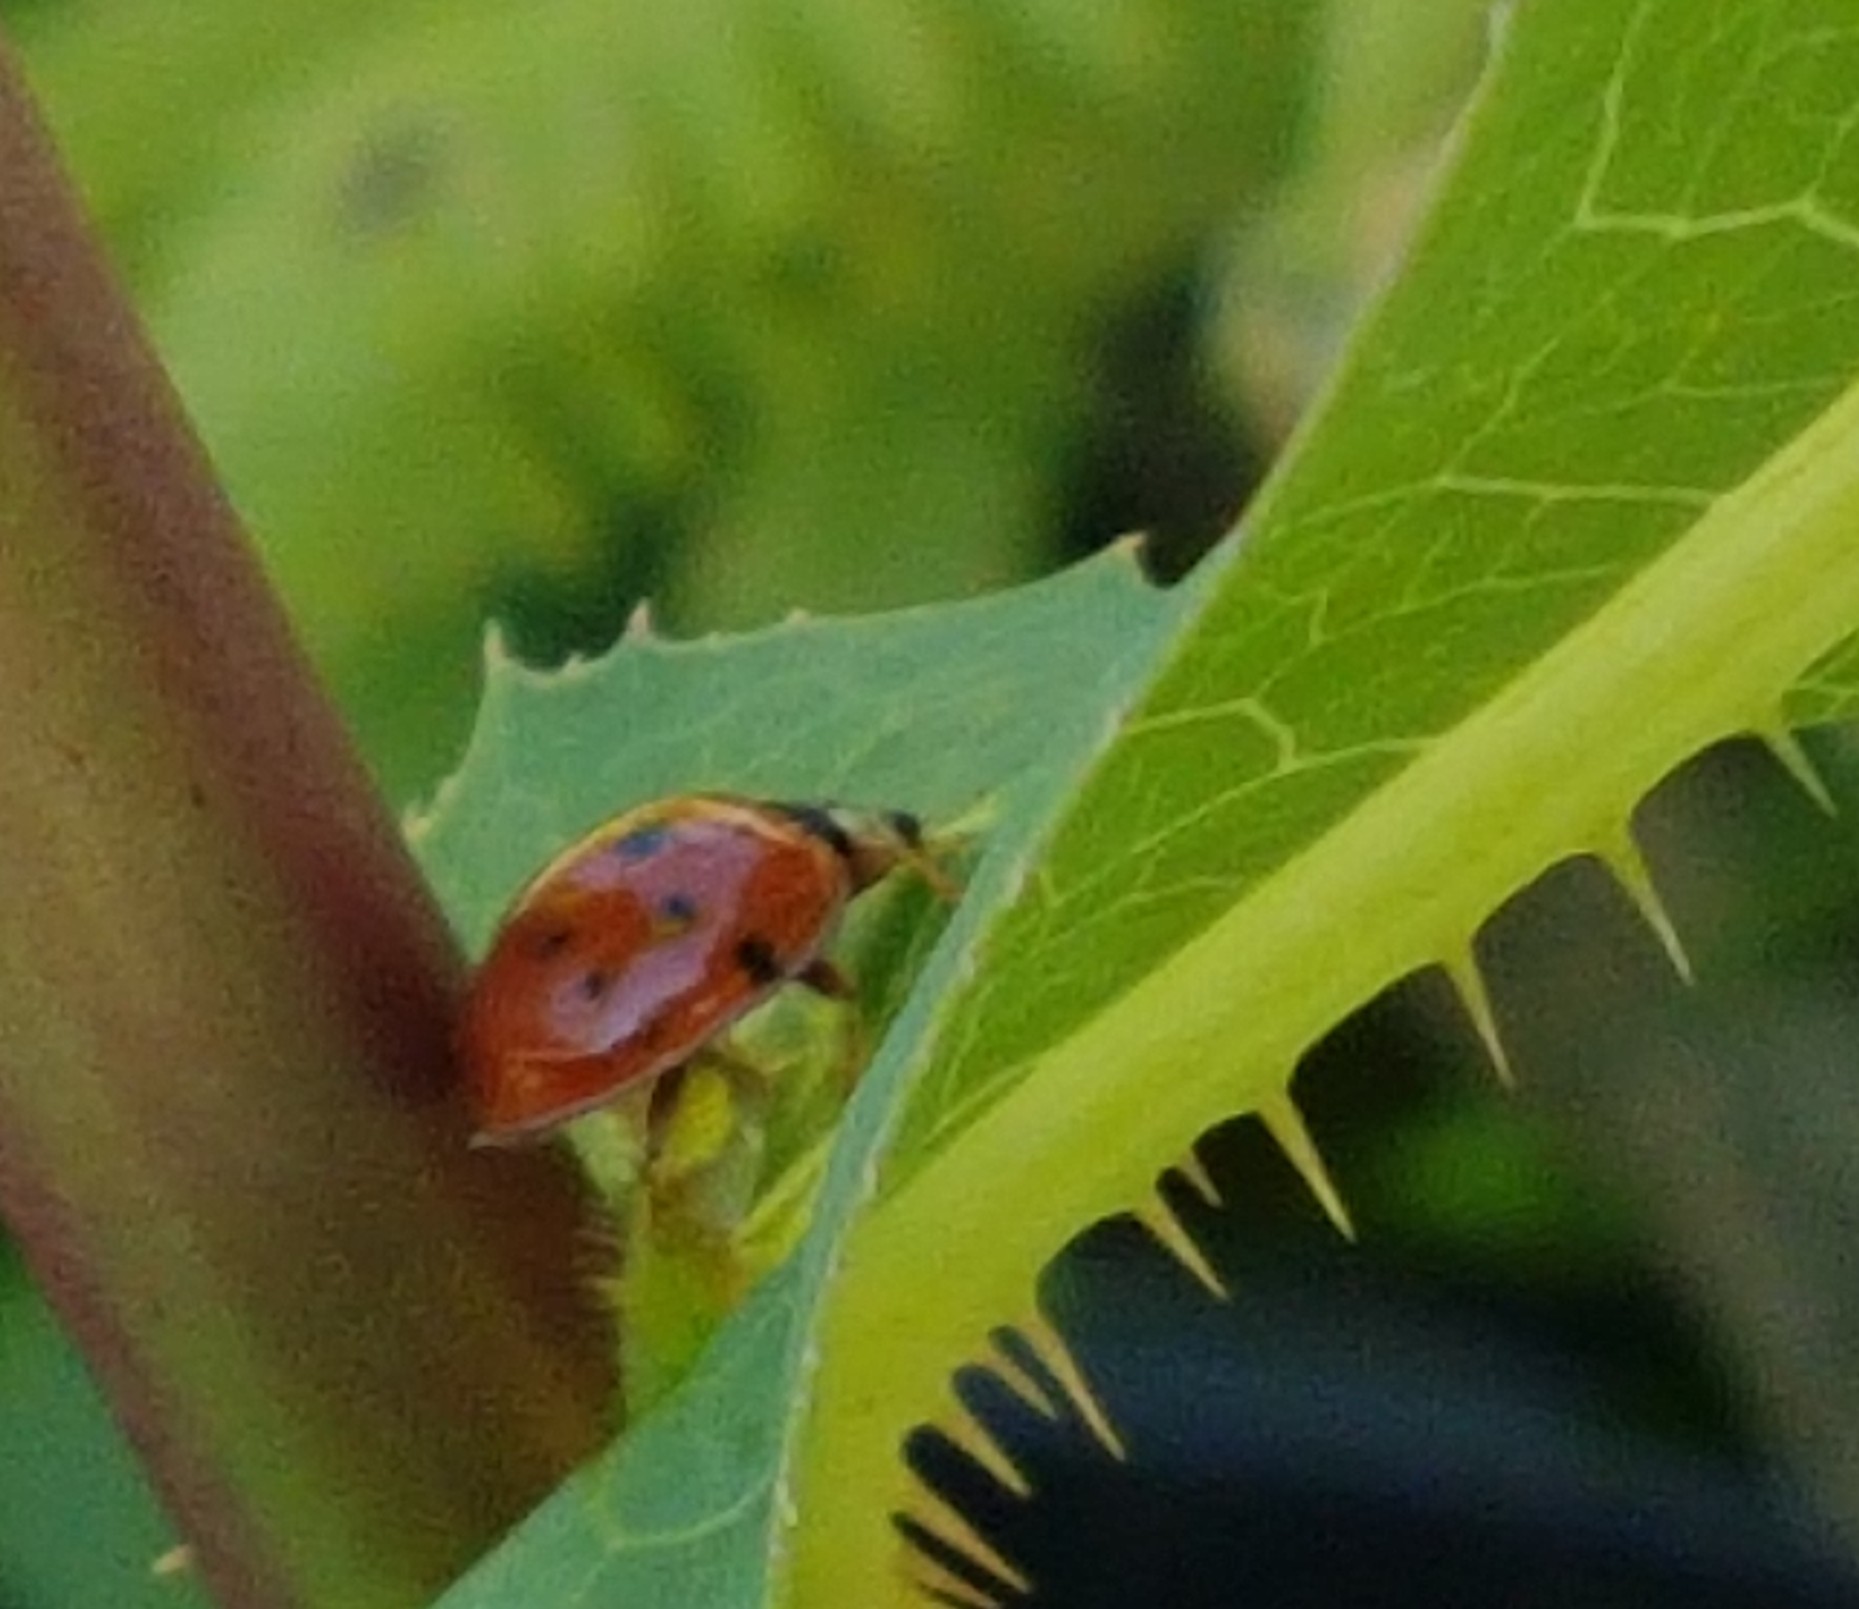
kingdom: Animalia
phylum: Arthropoda
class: Insecta
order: Coleoptera
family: Coccinellidae
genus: Harmonia
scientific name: Harmonia axyridis
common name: Harlequin ladybird
